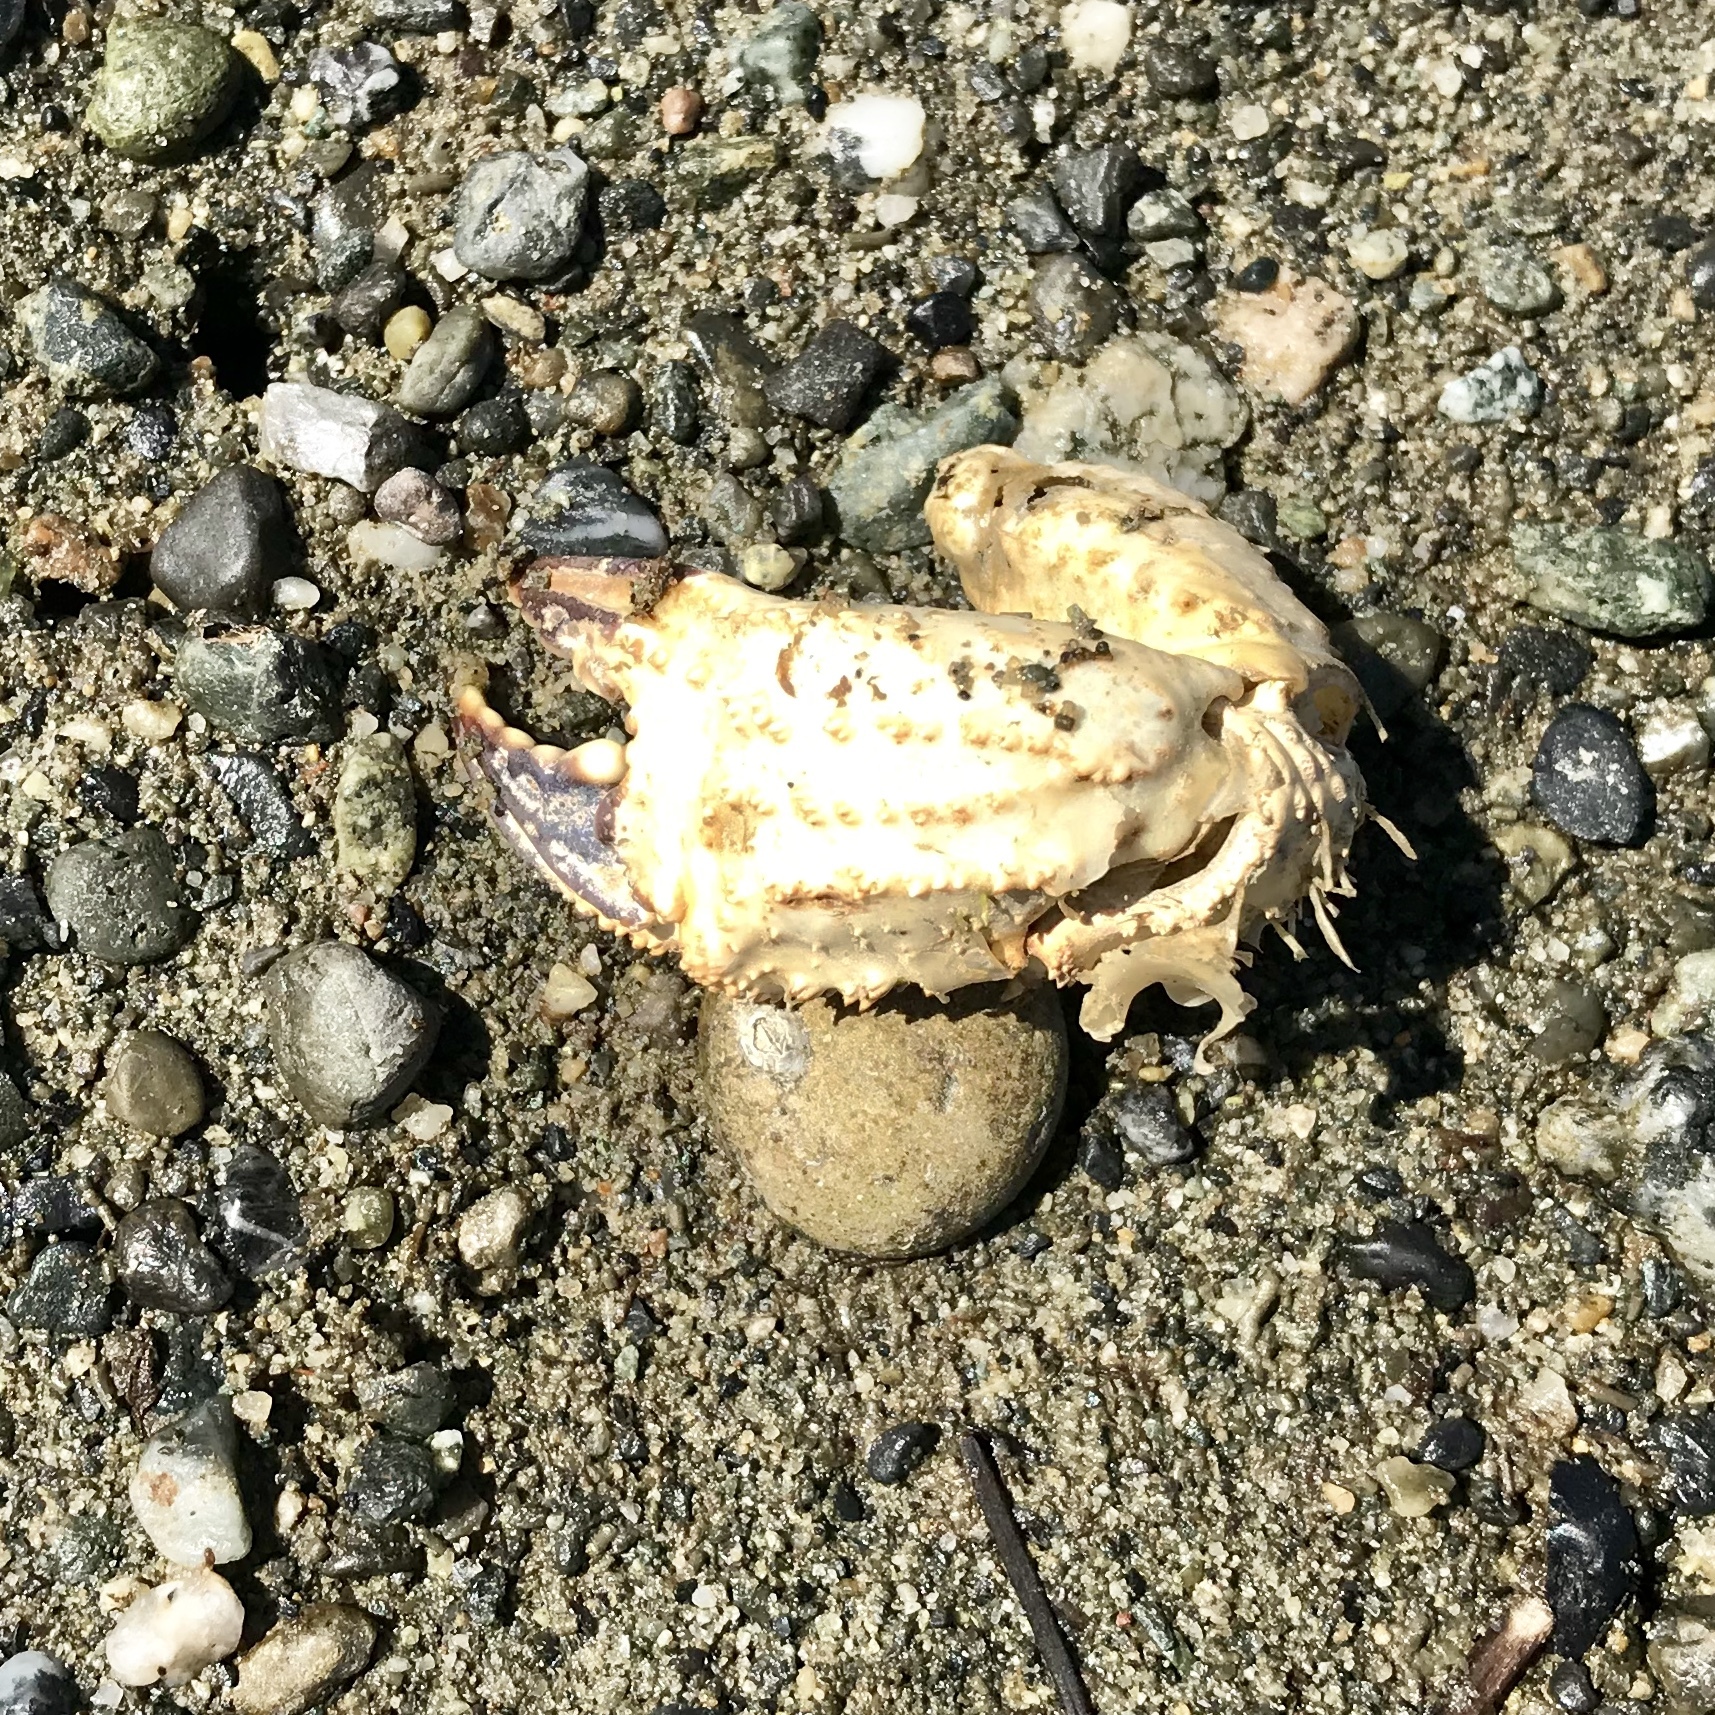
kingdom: Animalia
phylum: Arthropoda
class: Malacostraca
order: Decapoda
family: Cheiragonidae
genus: Telmessus
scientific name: Telmessus cheiragonus
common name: Helmet crab
